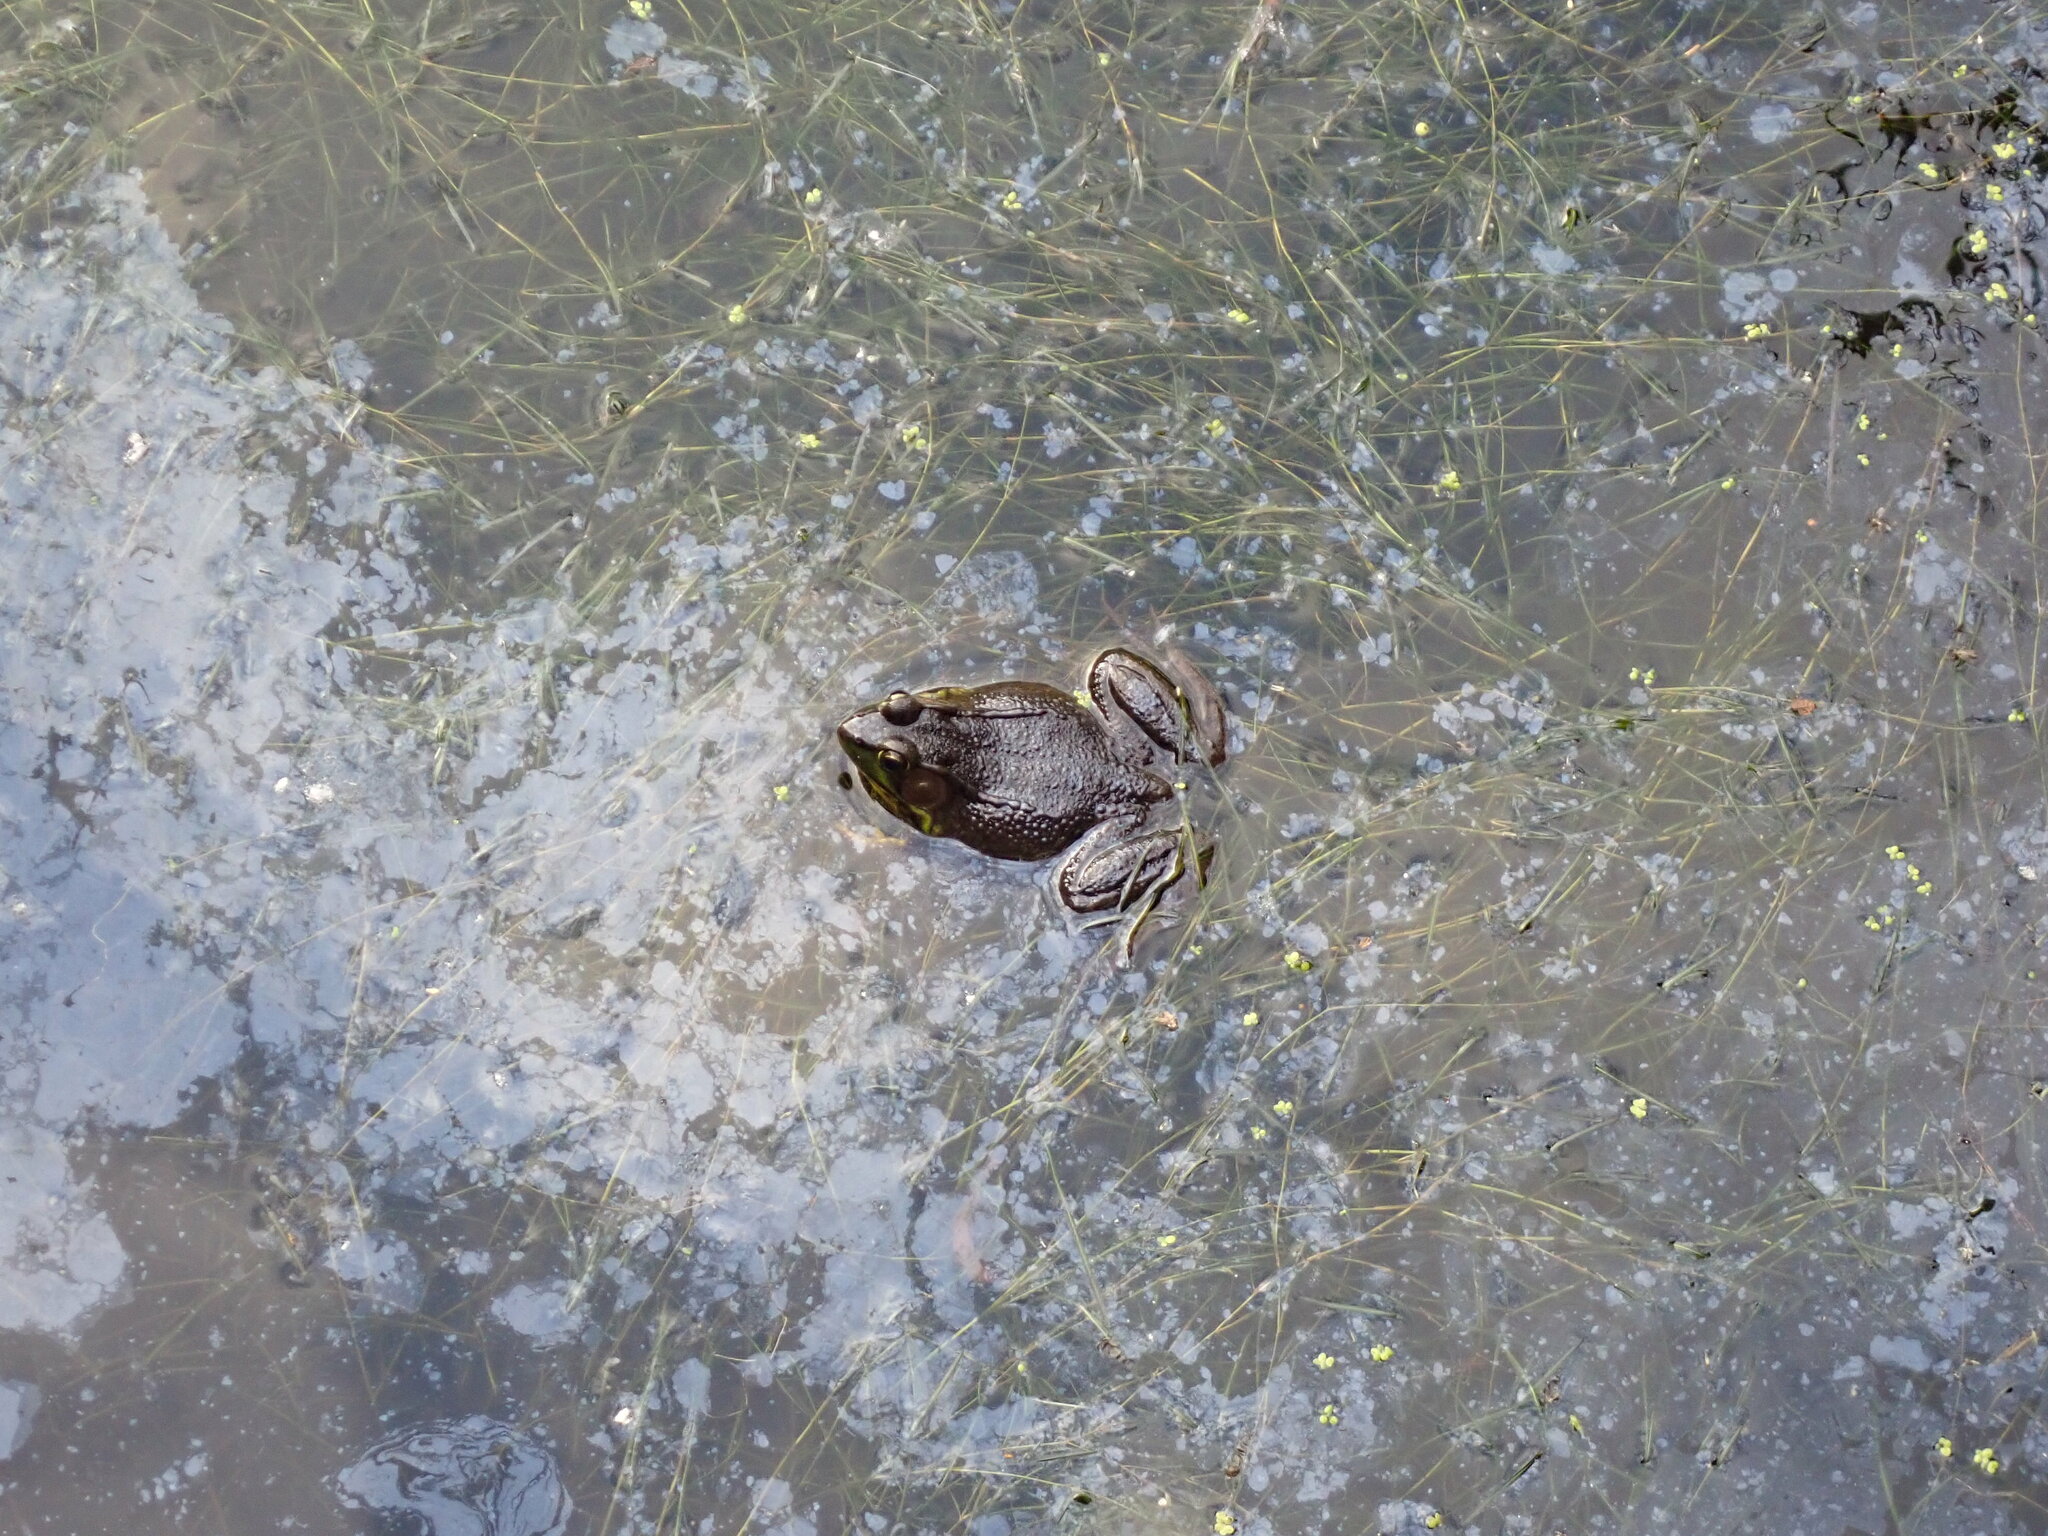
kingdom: Animalia
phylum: Chordata
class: Amphibia
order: Anura
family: Ranidae
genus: Lithobates
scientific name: Lithobates clamitans
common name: Green frog
